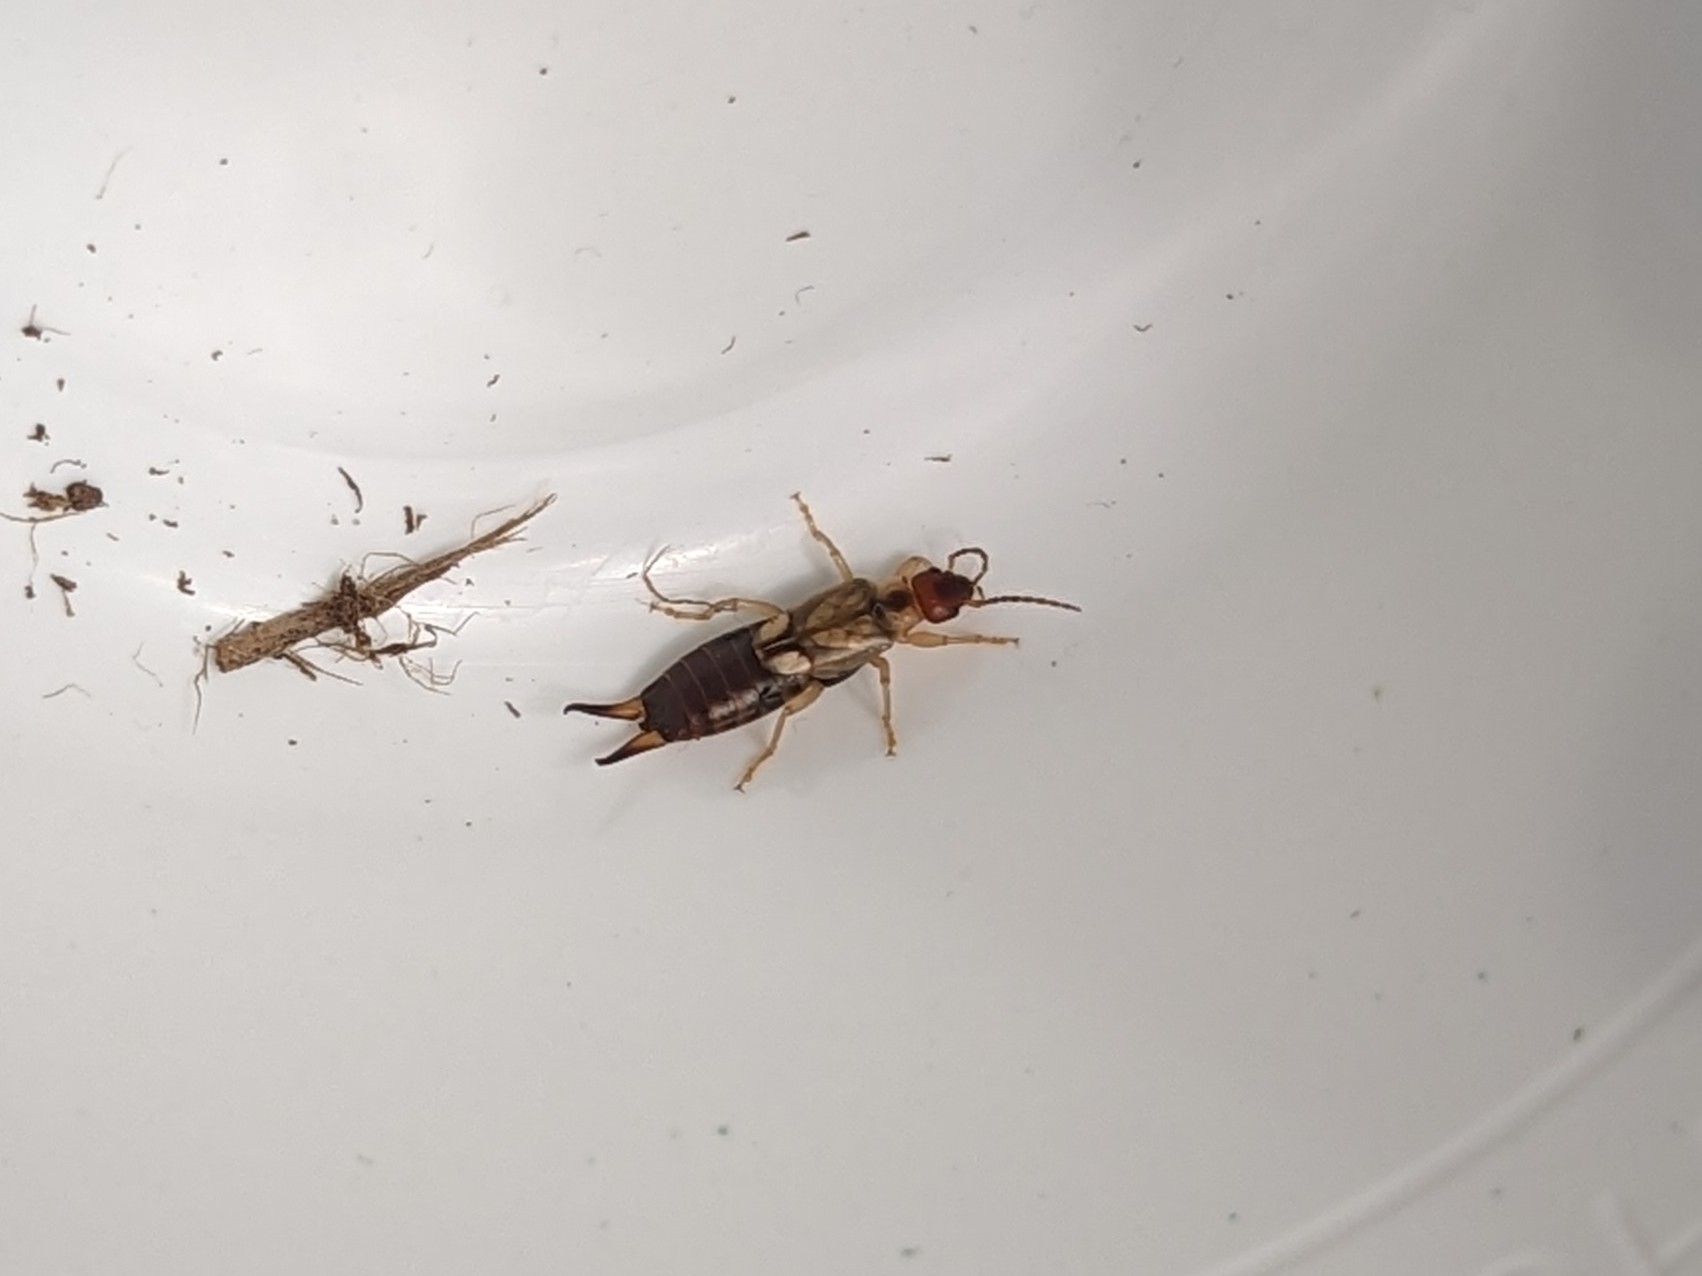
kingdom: Animalia
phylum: Arthropoda
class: Insecta
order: Dermaptera
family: Forficulidae
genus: Forficula
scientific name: Forficula dentata
